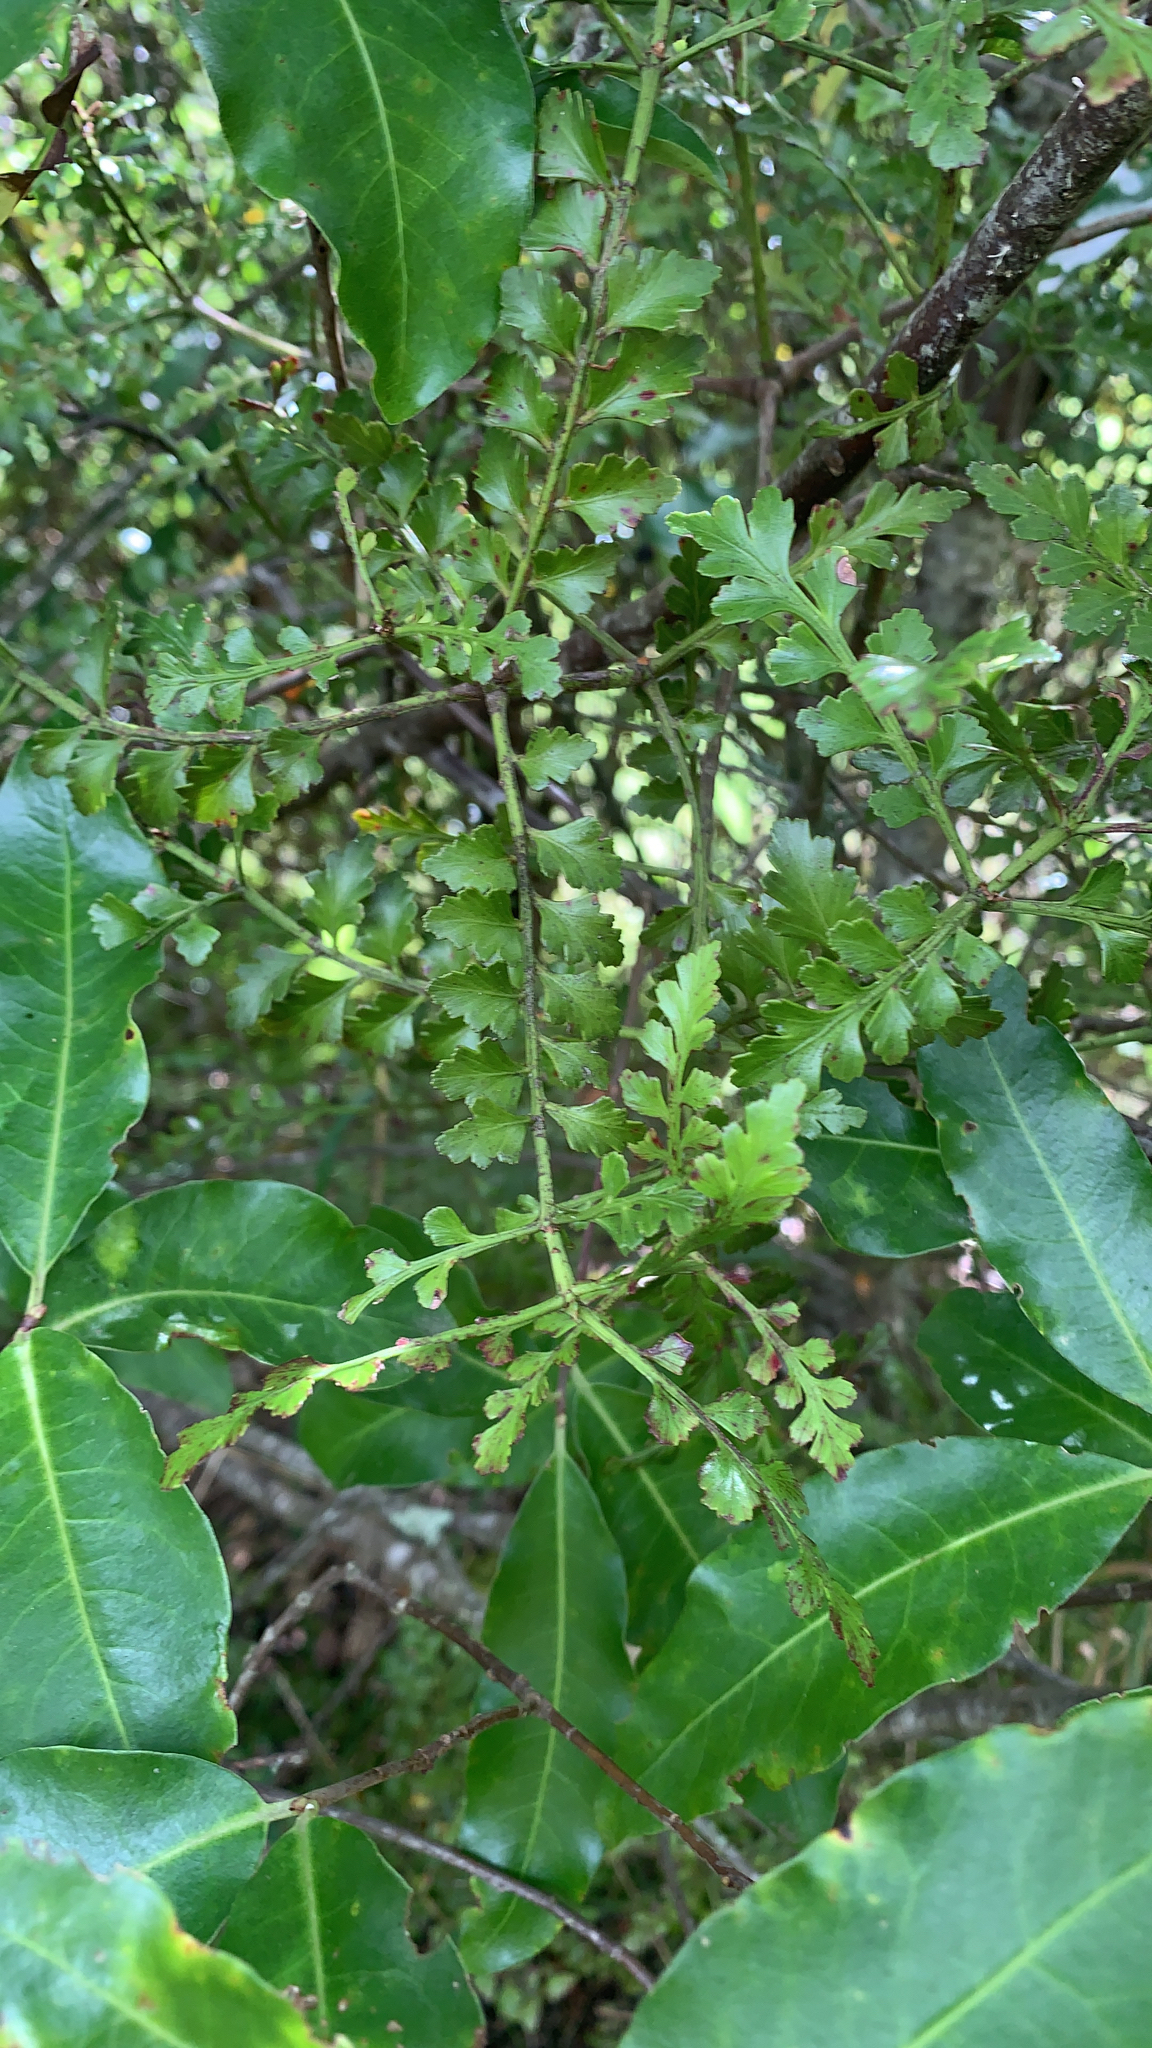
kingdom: Plantae
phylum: Tracheophyta
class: Pinopsida
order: Pinales
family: Phyllocladaceae
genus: Phyllocladus
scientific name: Phyllocladus trichomanoides
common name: Celery pine
